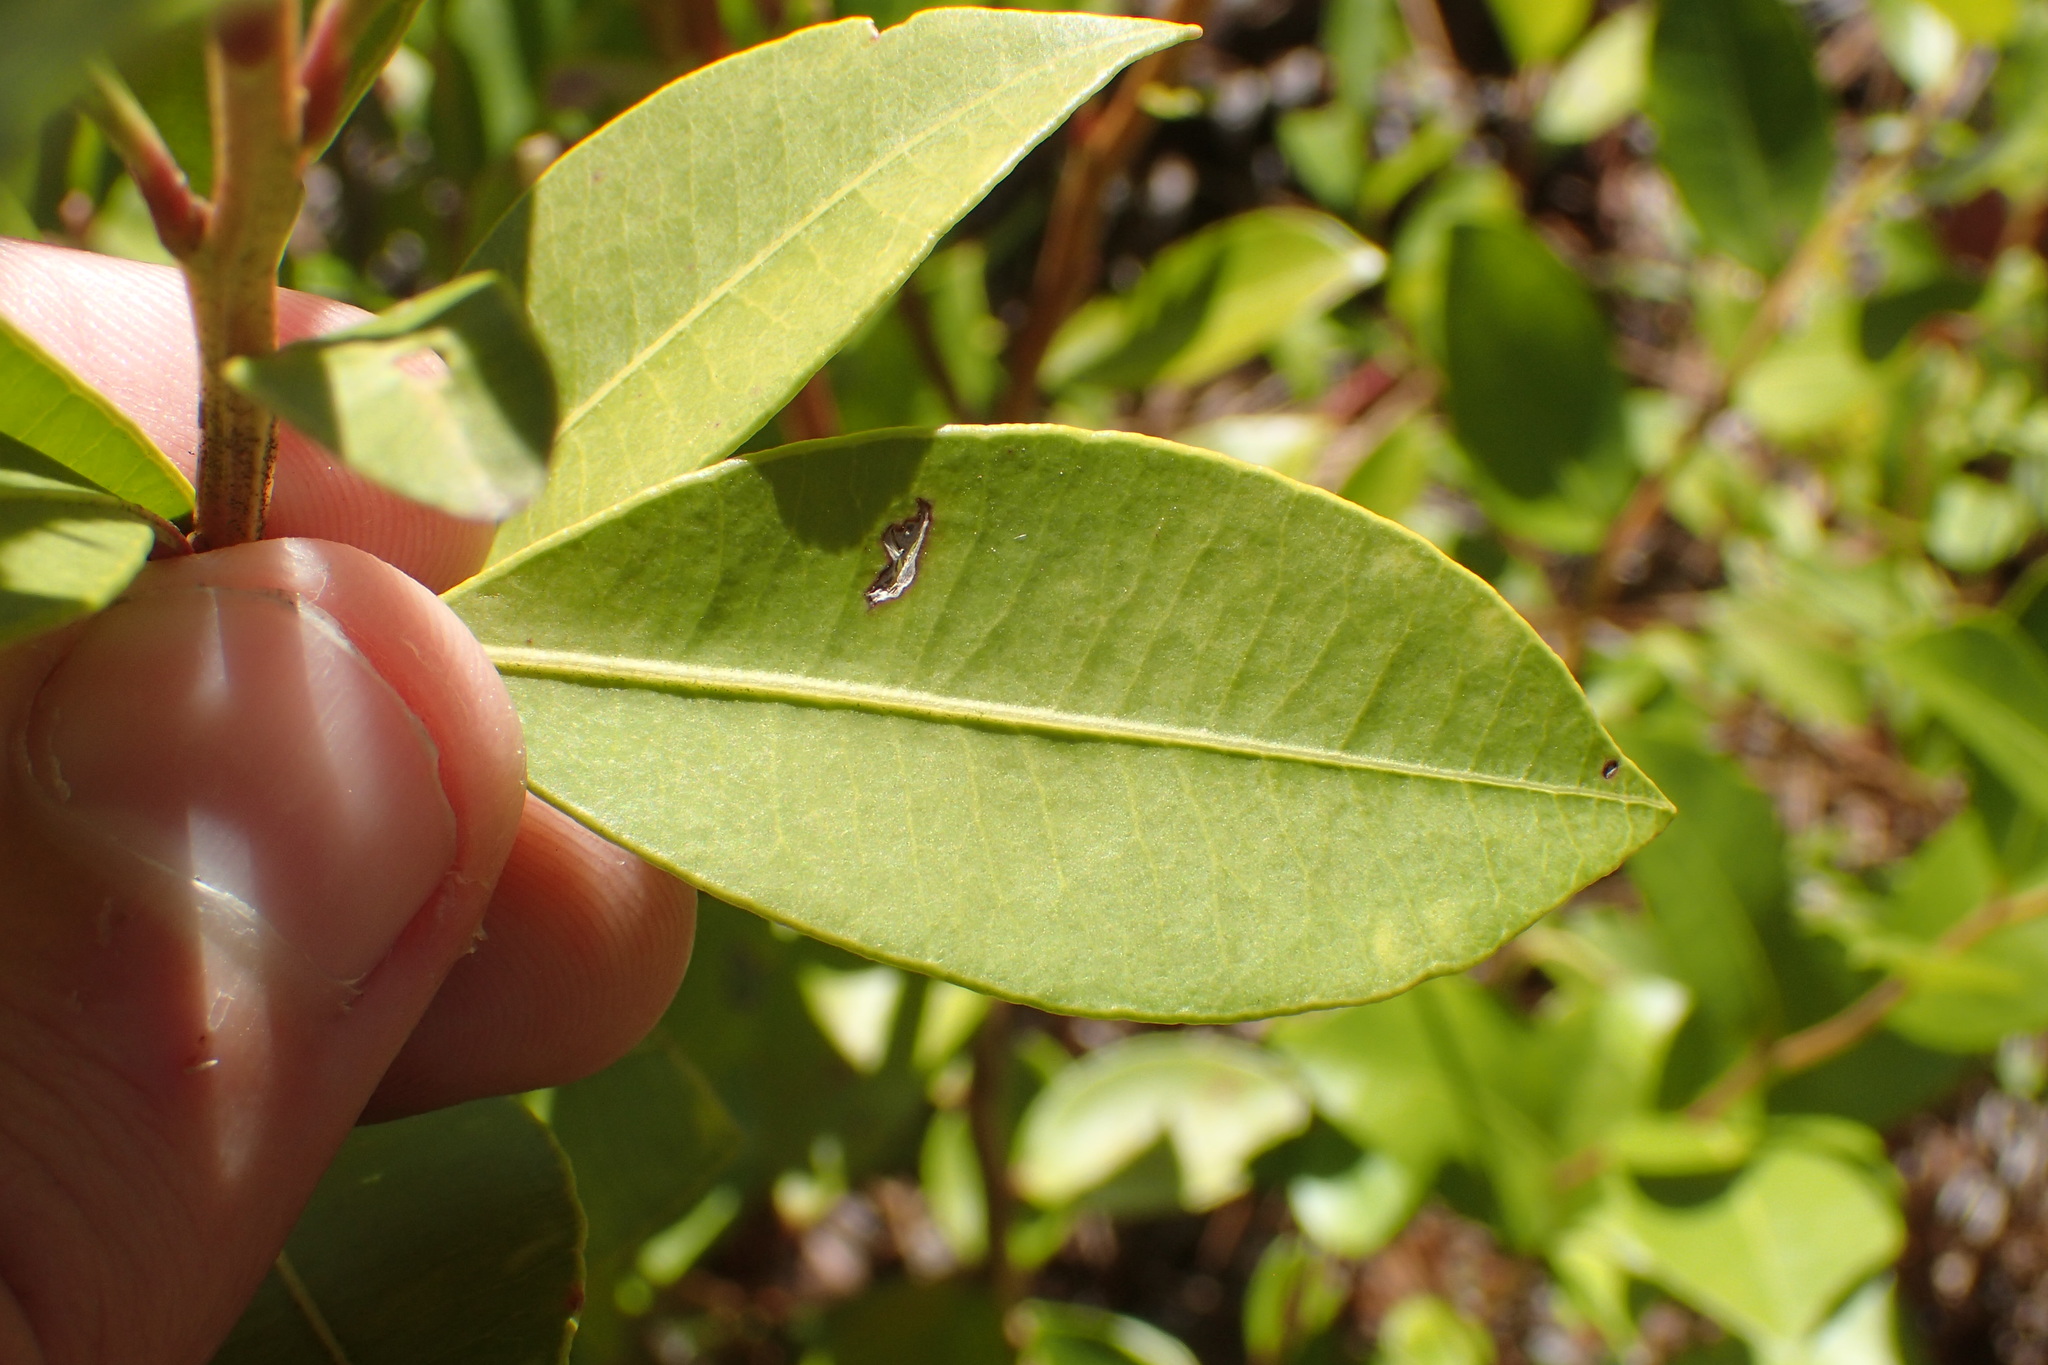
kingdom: Plantae
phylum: Tracheophyta
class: Magnoliopsida
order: Ericales
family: Ericaceae
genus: Lyonia
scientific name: Lyonia lucida
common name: Fetterbush
